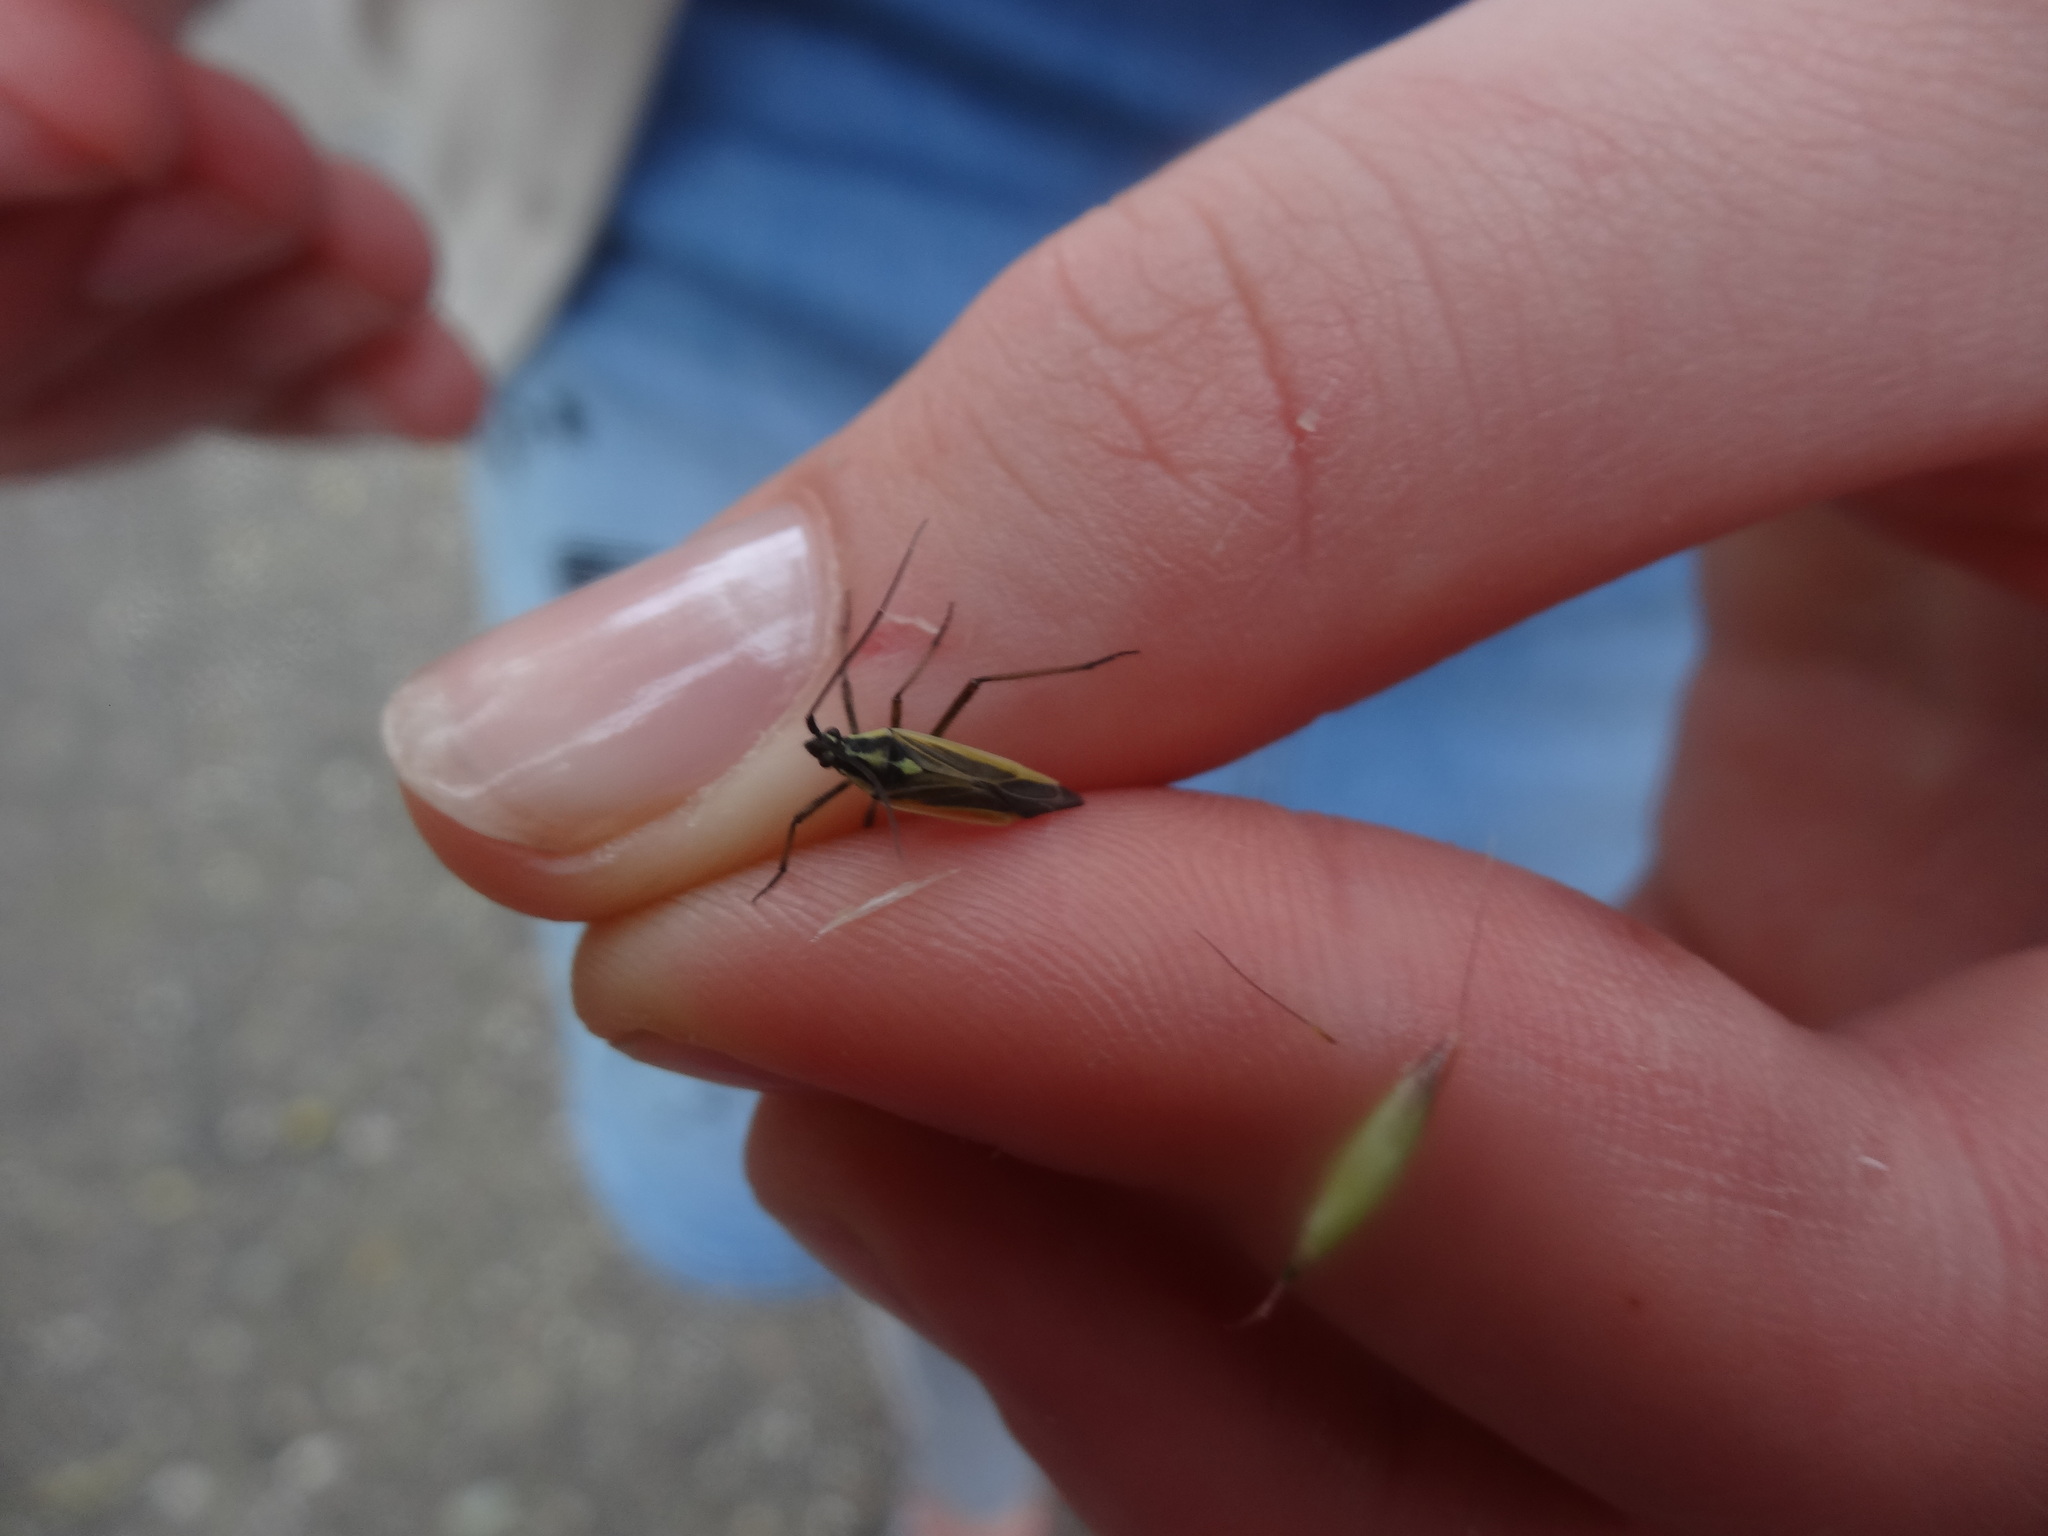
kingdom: Animalia
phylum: Arthropoda
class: Insecta
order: Hemiptera
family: Miridae
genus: Leptopterna
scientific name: Leptopterna dolabrata
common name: Meadow plant bug
